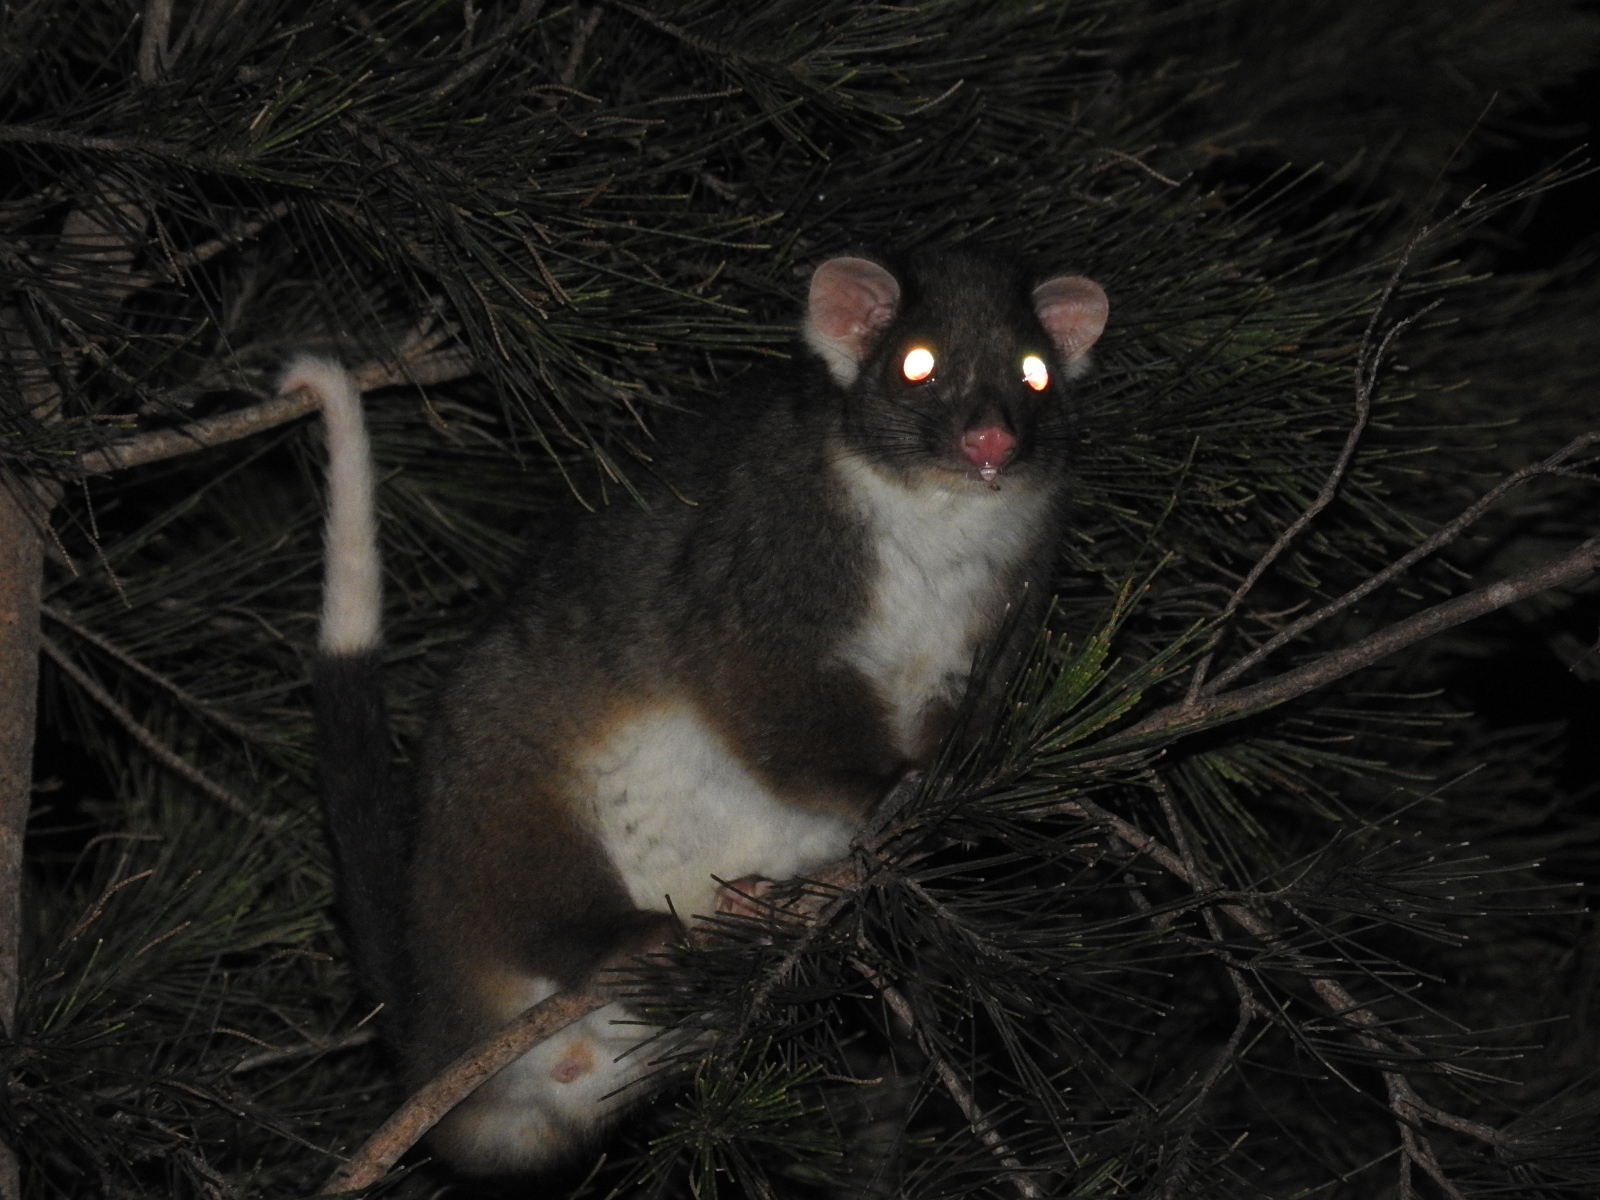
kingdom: Animalia
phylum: Chordata
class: Mammalia
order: Diprotodontia
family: Pseudocheiridae
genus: Pseudocheirus
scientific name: Pseudocheirus peregrinus
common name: Common ringtail possum
